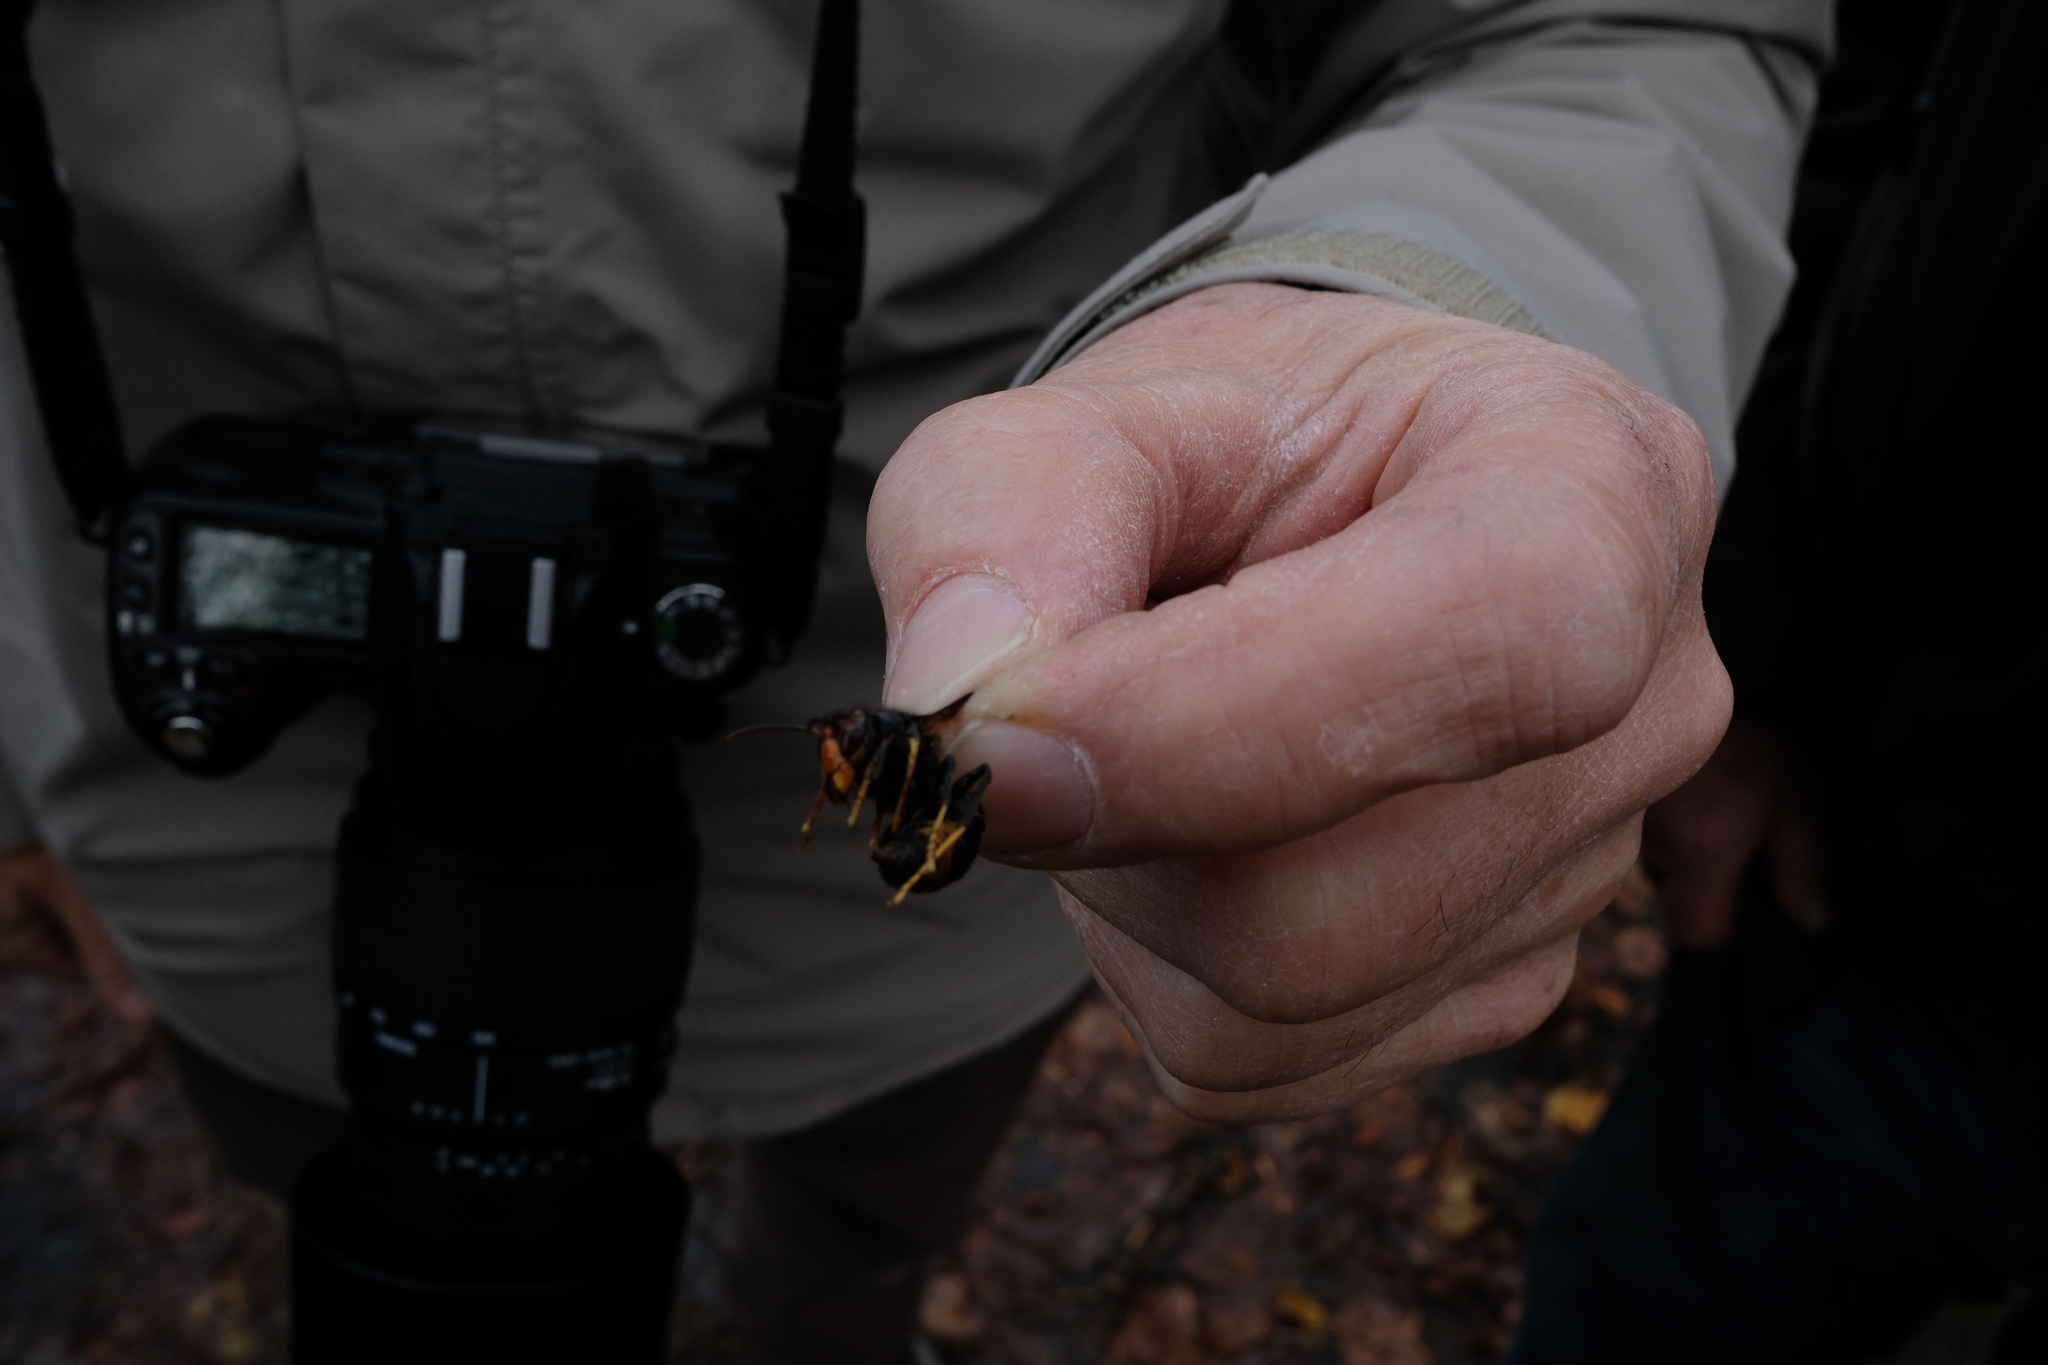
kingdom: Animalia
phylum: Arthropoda
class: Insecta
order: Hymenoptera
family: Vespidae
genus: Vespa
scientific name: Vespa velutina
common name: Asian hornet
